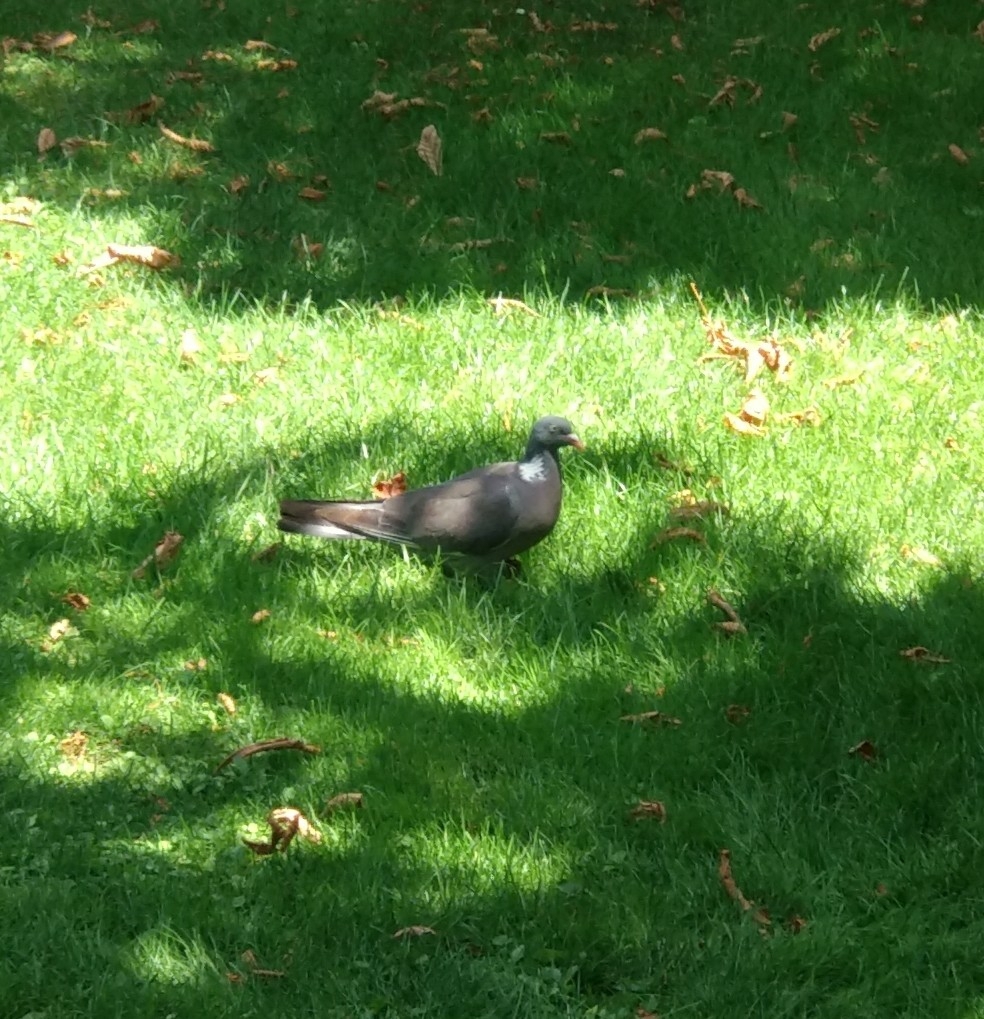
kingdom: Animalia
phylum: Chordata
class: Aves
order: Columbiformes
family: Columbidae
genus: Columba
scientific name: Columba palumbus
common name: Common wood pigeon
